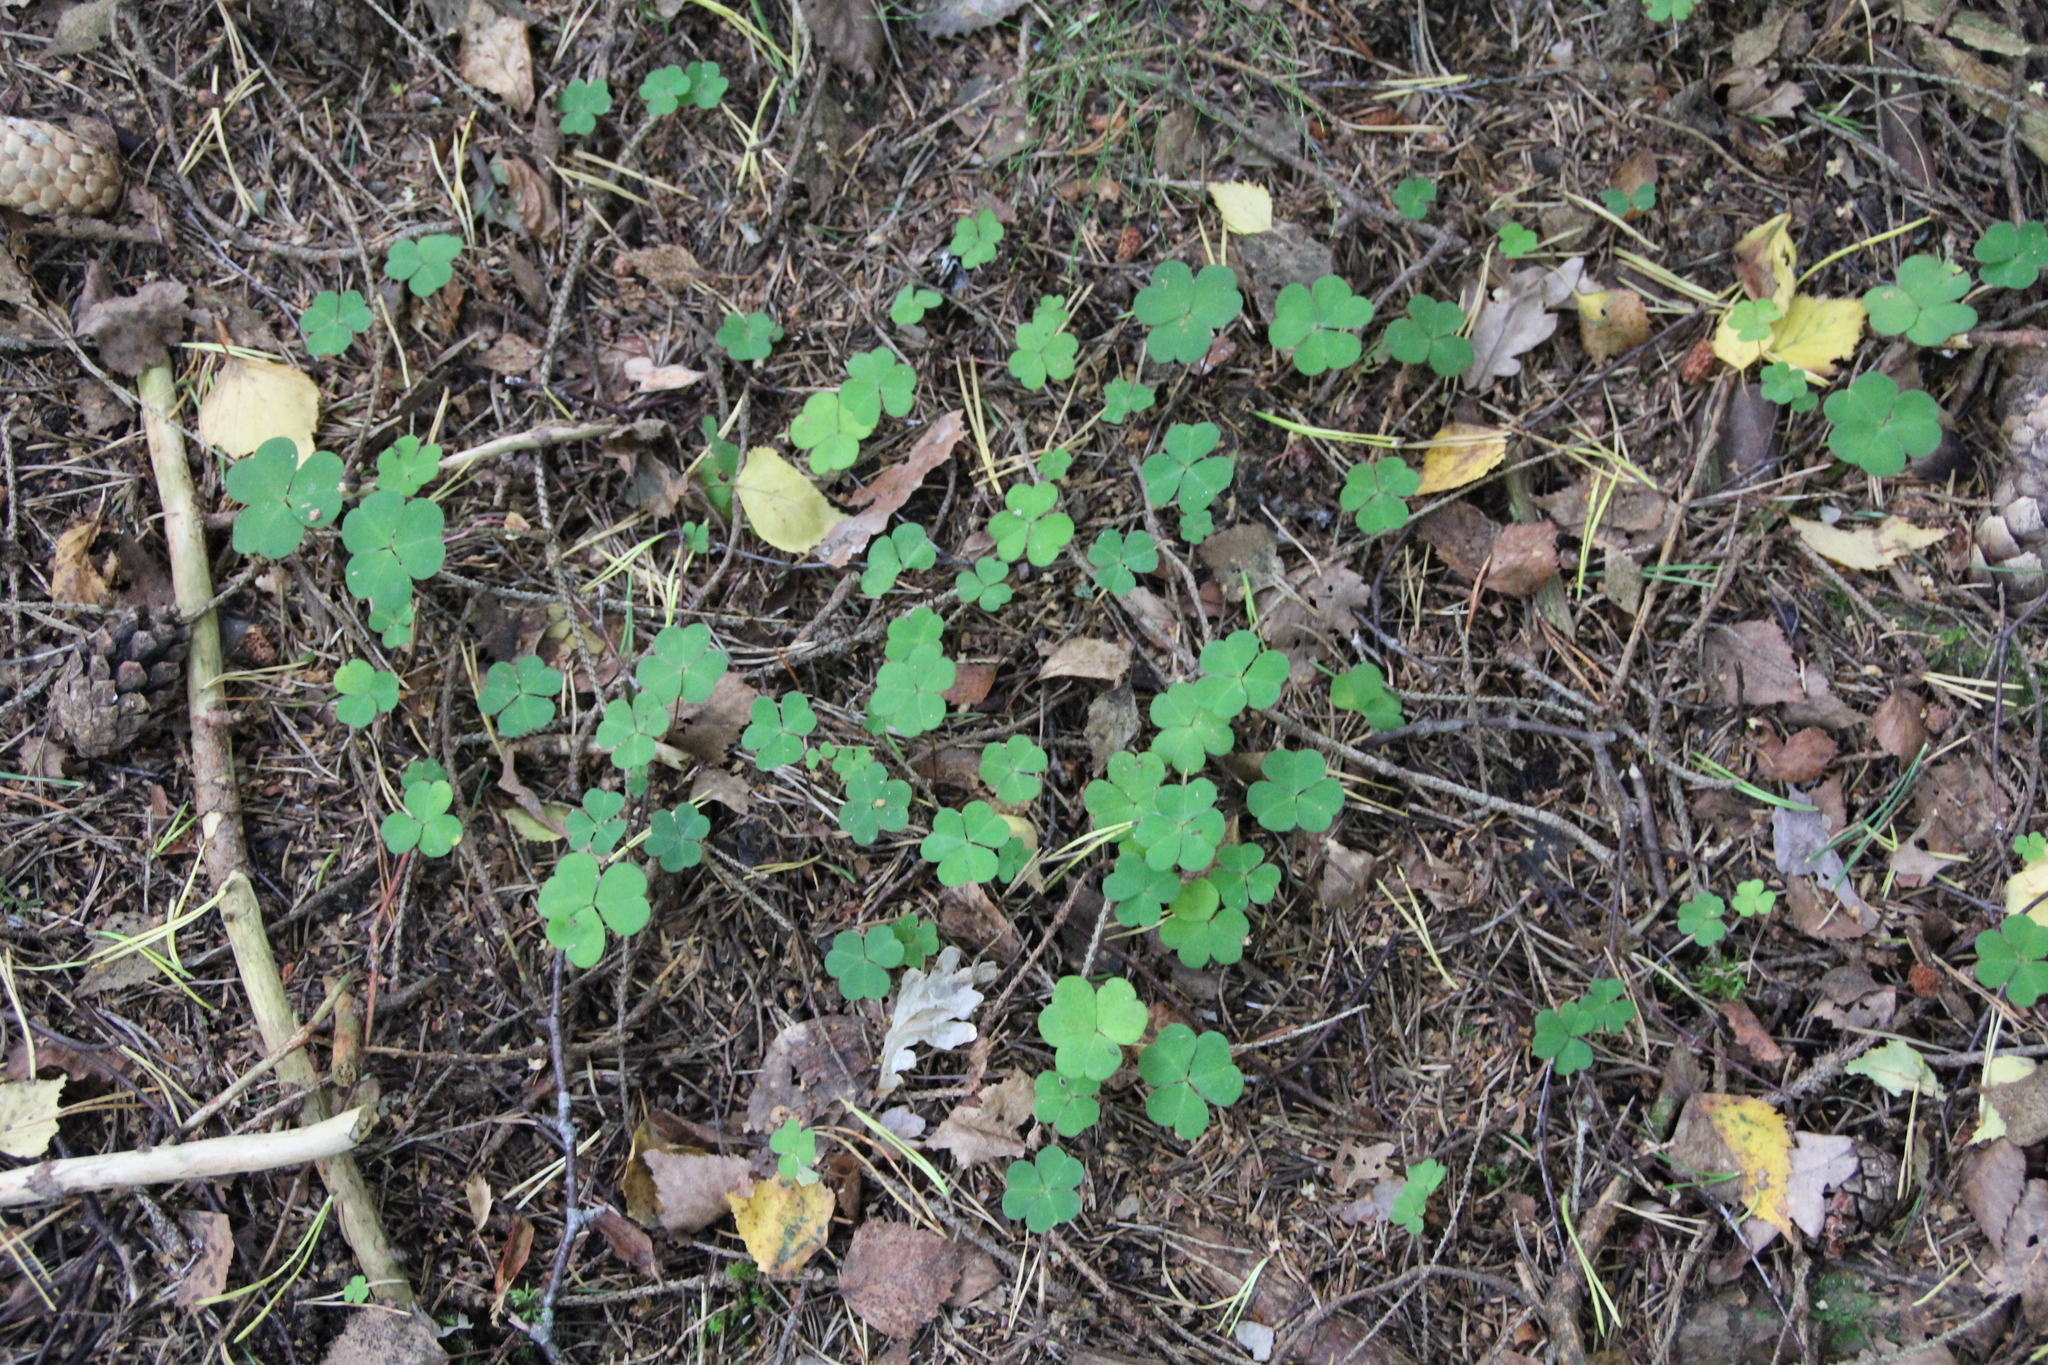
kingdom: Plantae
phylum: Tracheophyta
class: Magnoliopsida
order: Oxalidales
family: Oxalidaceae
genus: Oxalis
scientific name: Oxalis acetosella
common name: Wood-sorrel
